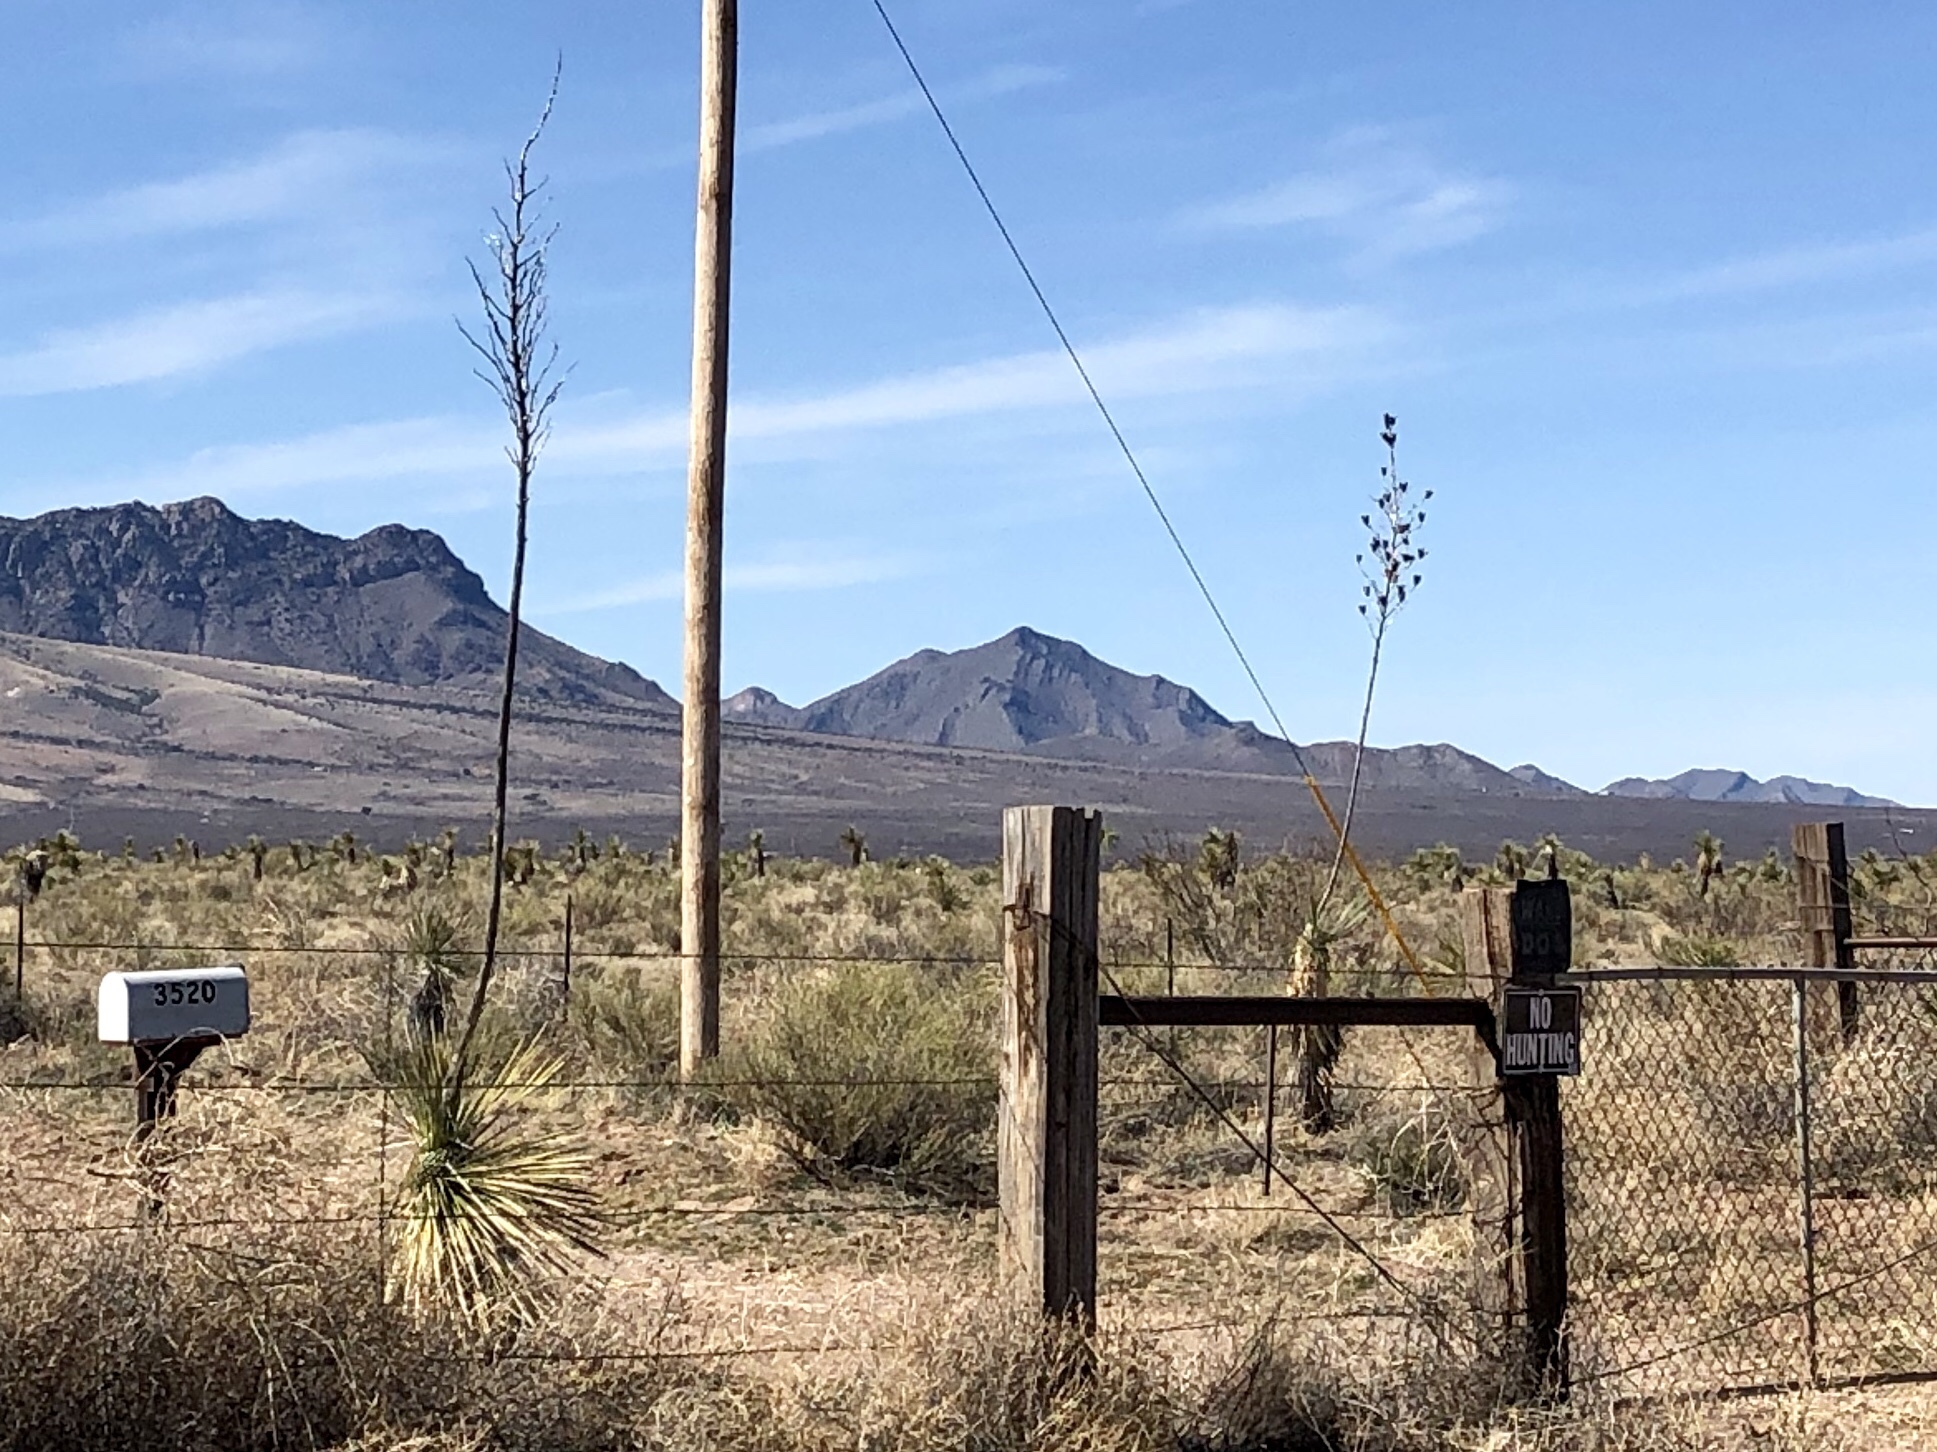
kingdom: Plantae
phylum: Tracheophyta
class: Liliopsida
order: Asparagales
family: Asparagaceae
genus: Yucca
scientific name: Yucca elata
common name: Palmella
